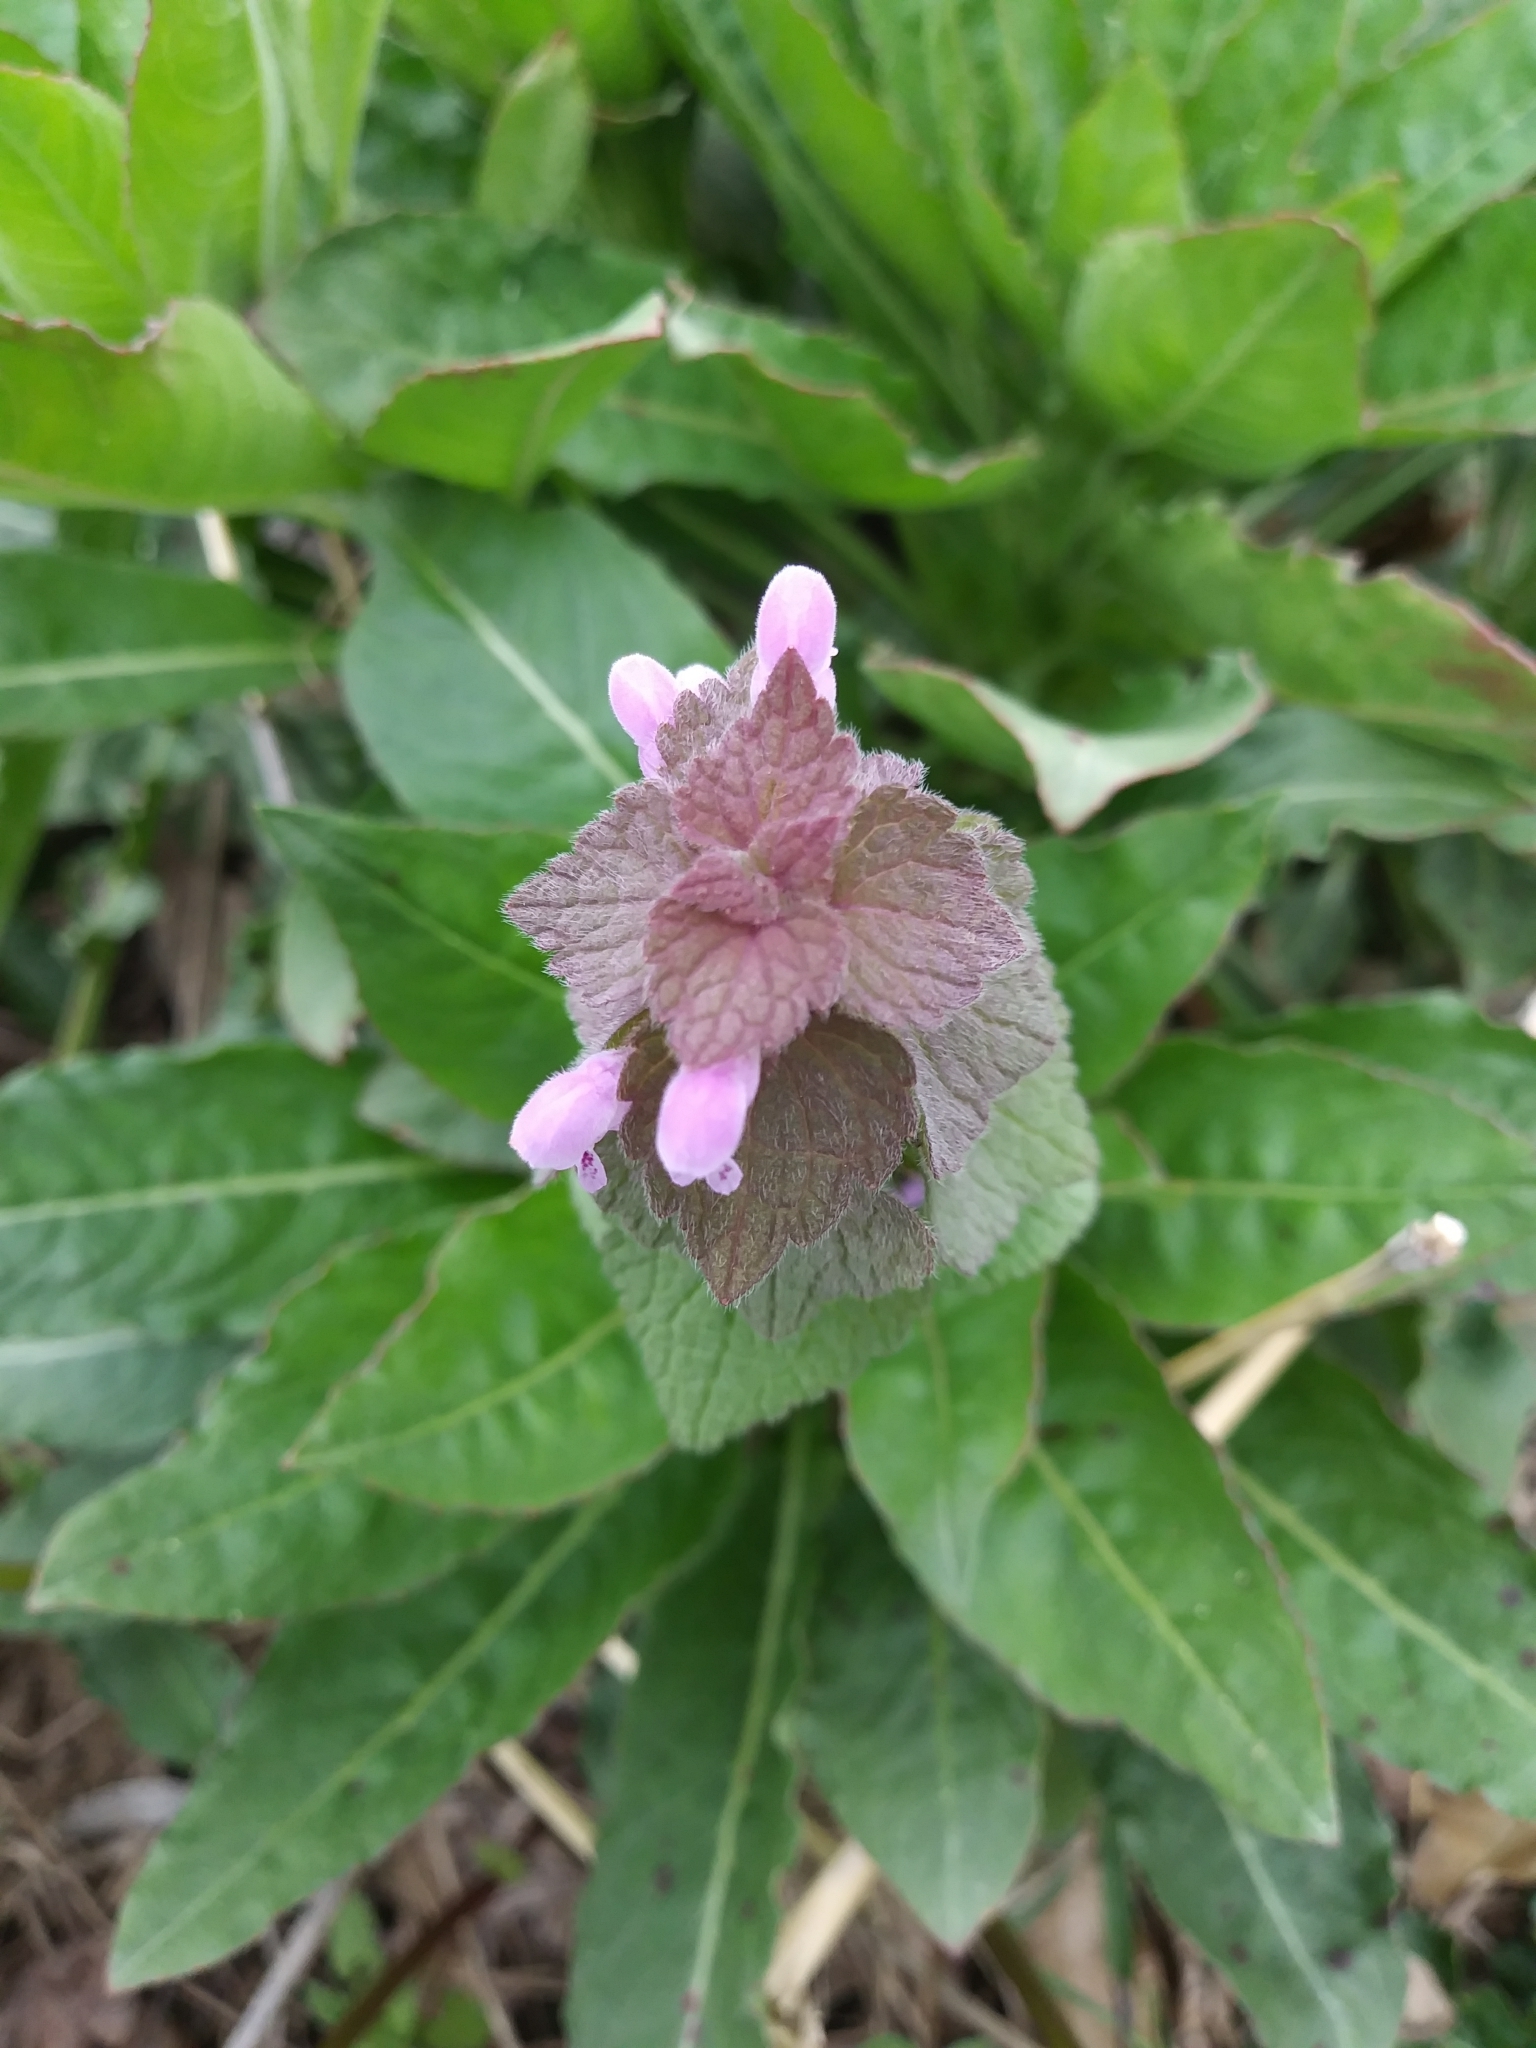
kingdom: Plantae
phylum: Tracheophyta
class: Magnoliopsida
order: Lamiales
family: Lamiaceae
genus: Lamium
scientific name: Lamium purpureum
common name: Red dead-nettle
